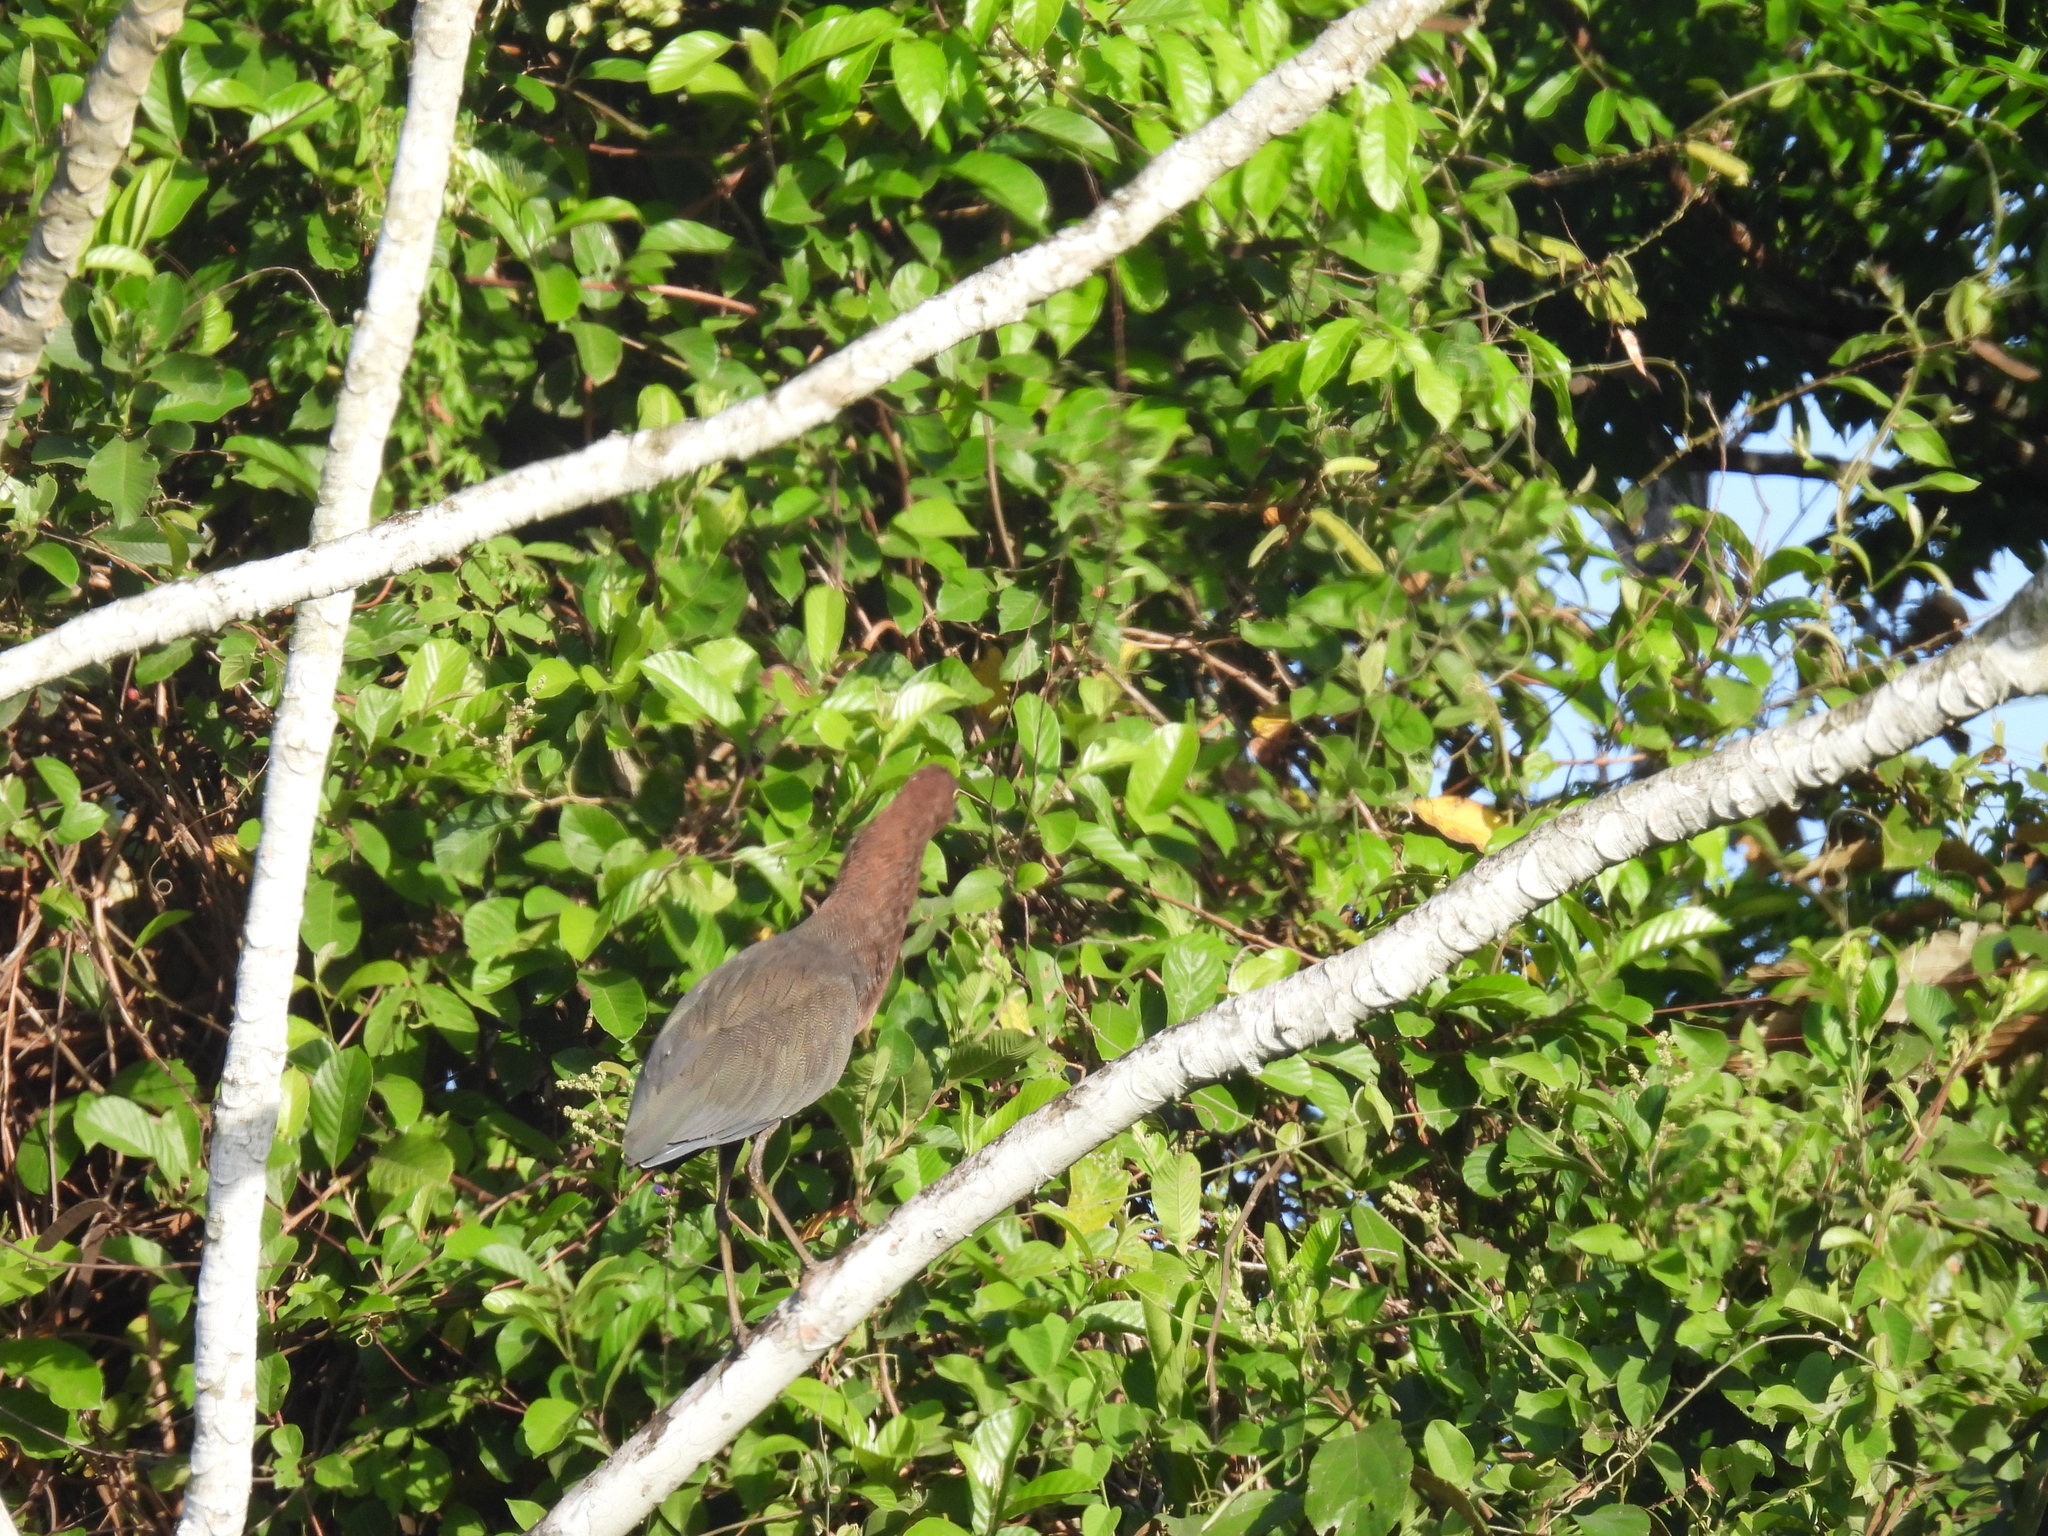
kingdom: Animalia
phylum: Chordata
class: Aves
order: Pelecaniformes
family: Ardeidae
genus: Tigrisoma
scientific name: Tigrisoma lineatum
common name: Rufescent tiger-heron
